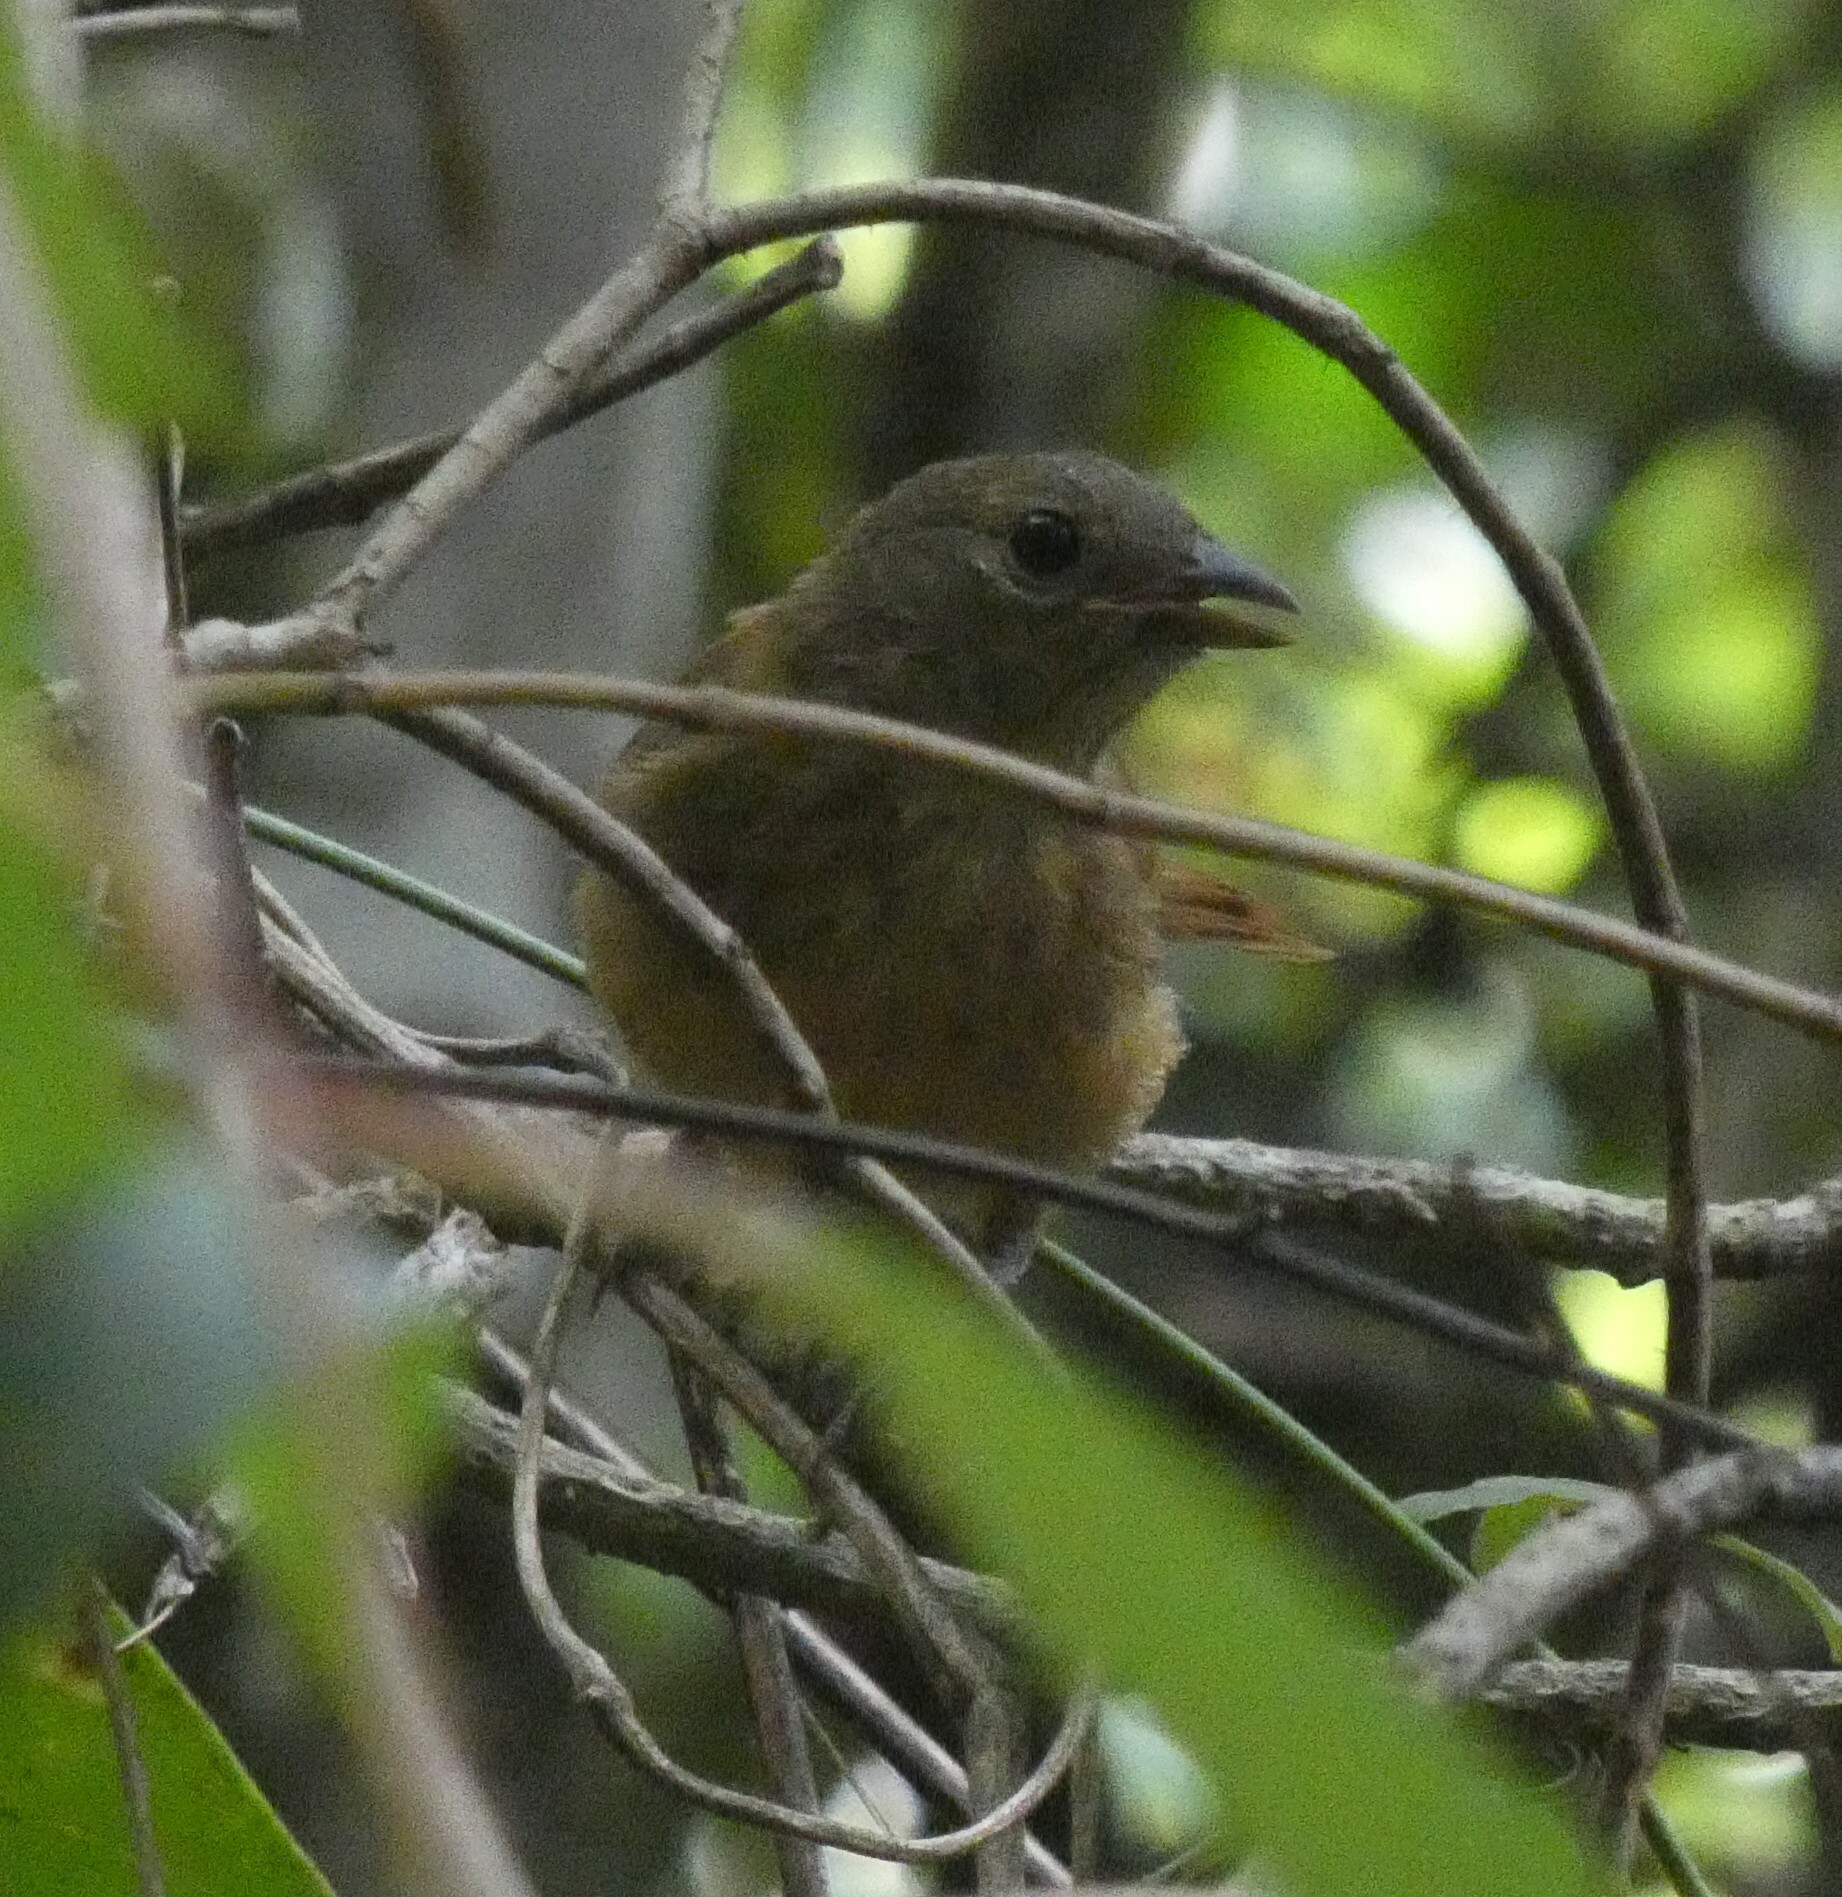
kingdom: Animalia
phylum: Chordata
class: Aves
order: Passeriformes
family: Thraupidae
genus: Tachyphonus
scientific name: Tachyphonus coronatus
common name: Ruby-crowned tanager
